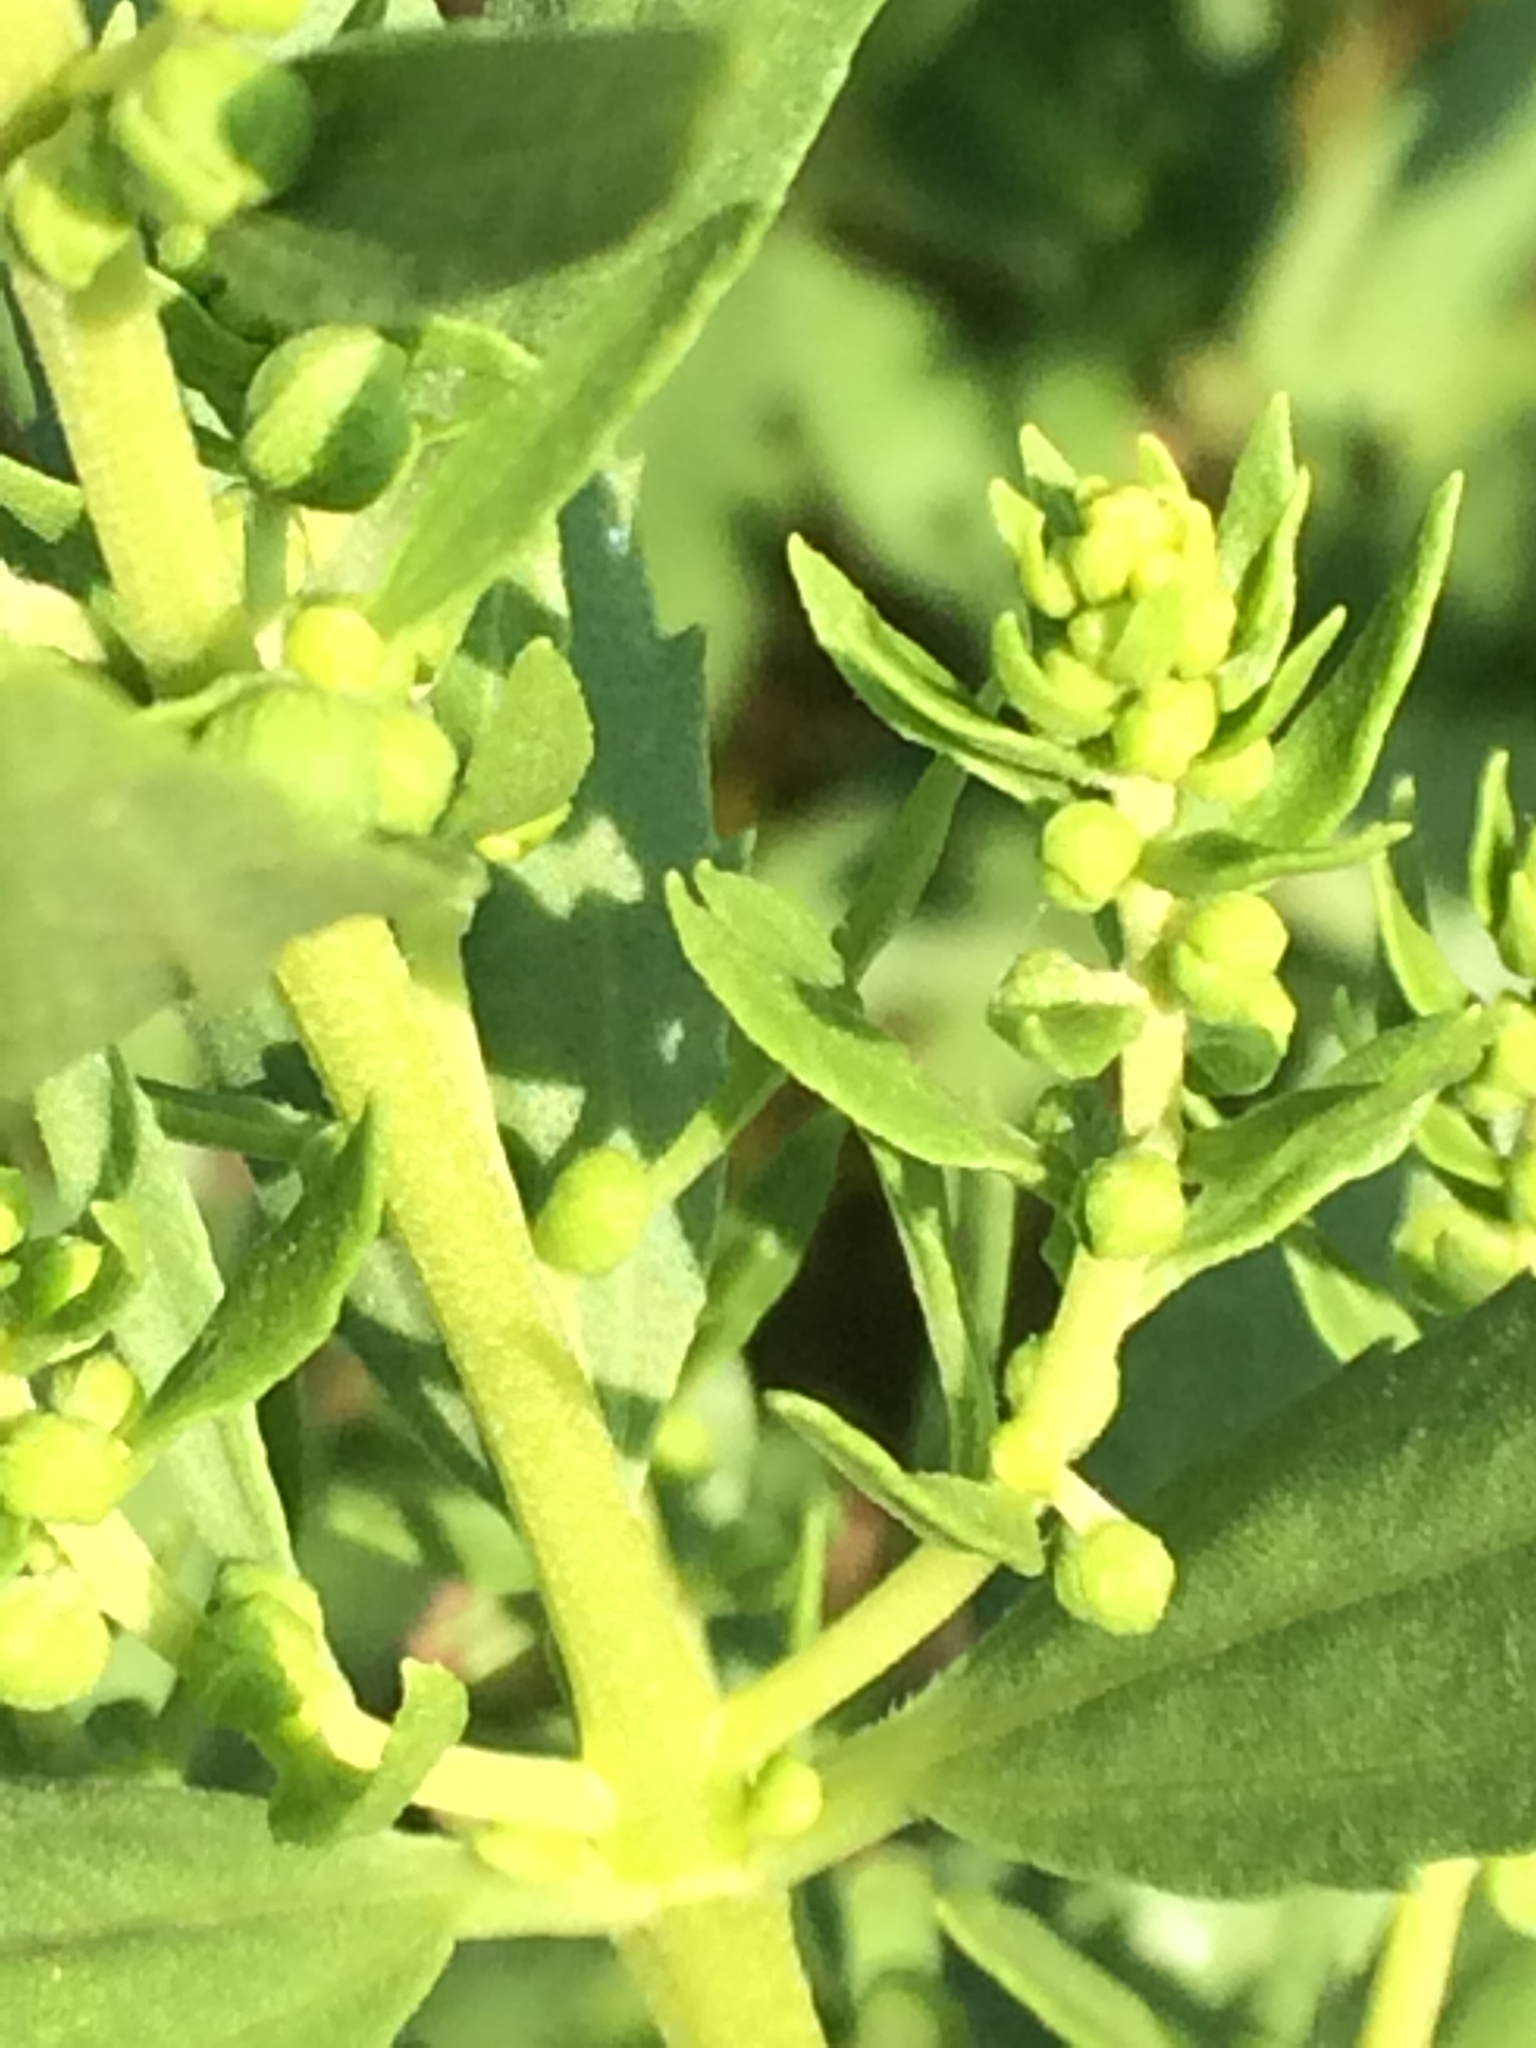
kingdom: Plantae
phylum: Tracheophyta
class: Magnoliopsida
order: Asterales
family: Asteraceae
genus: Iva
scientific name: Iva frutescens
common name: Big-leaved marsh-elder
